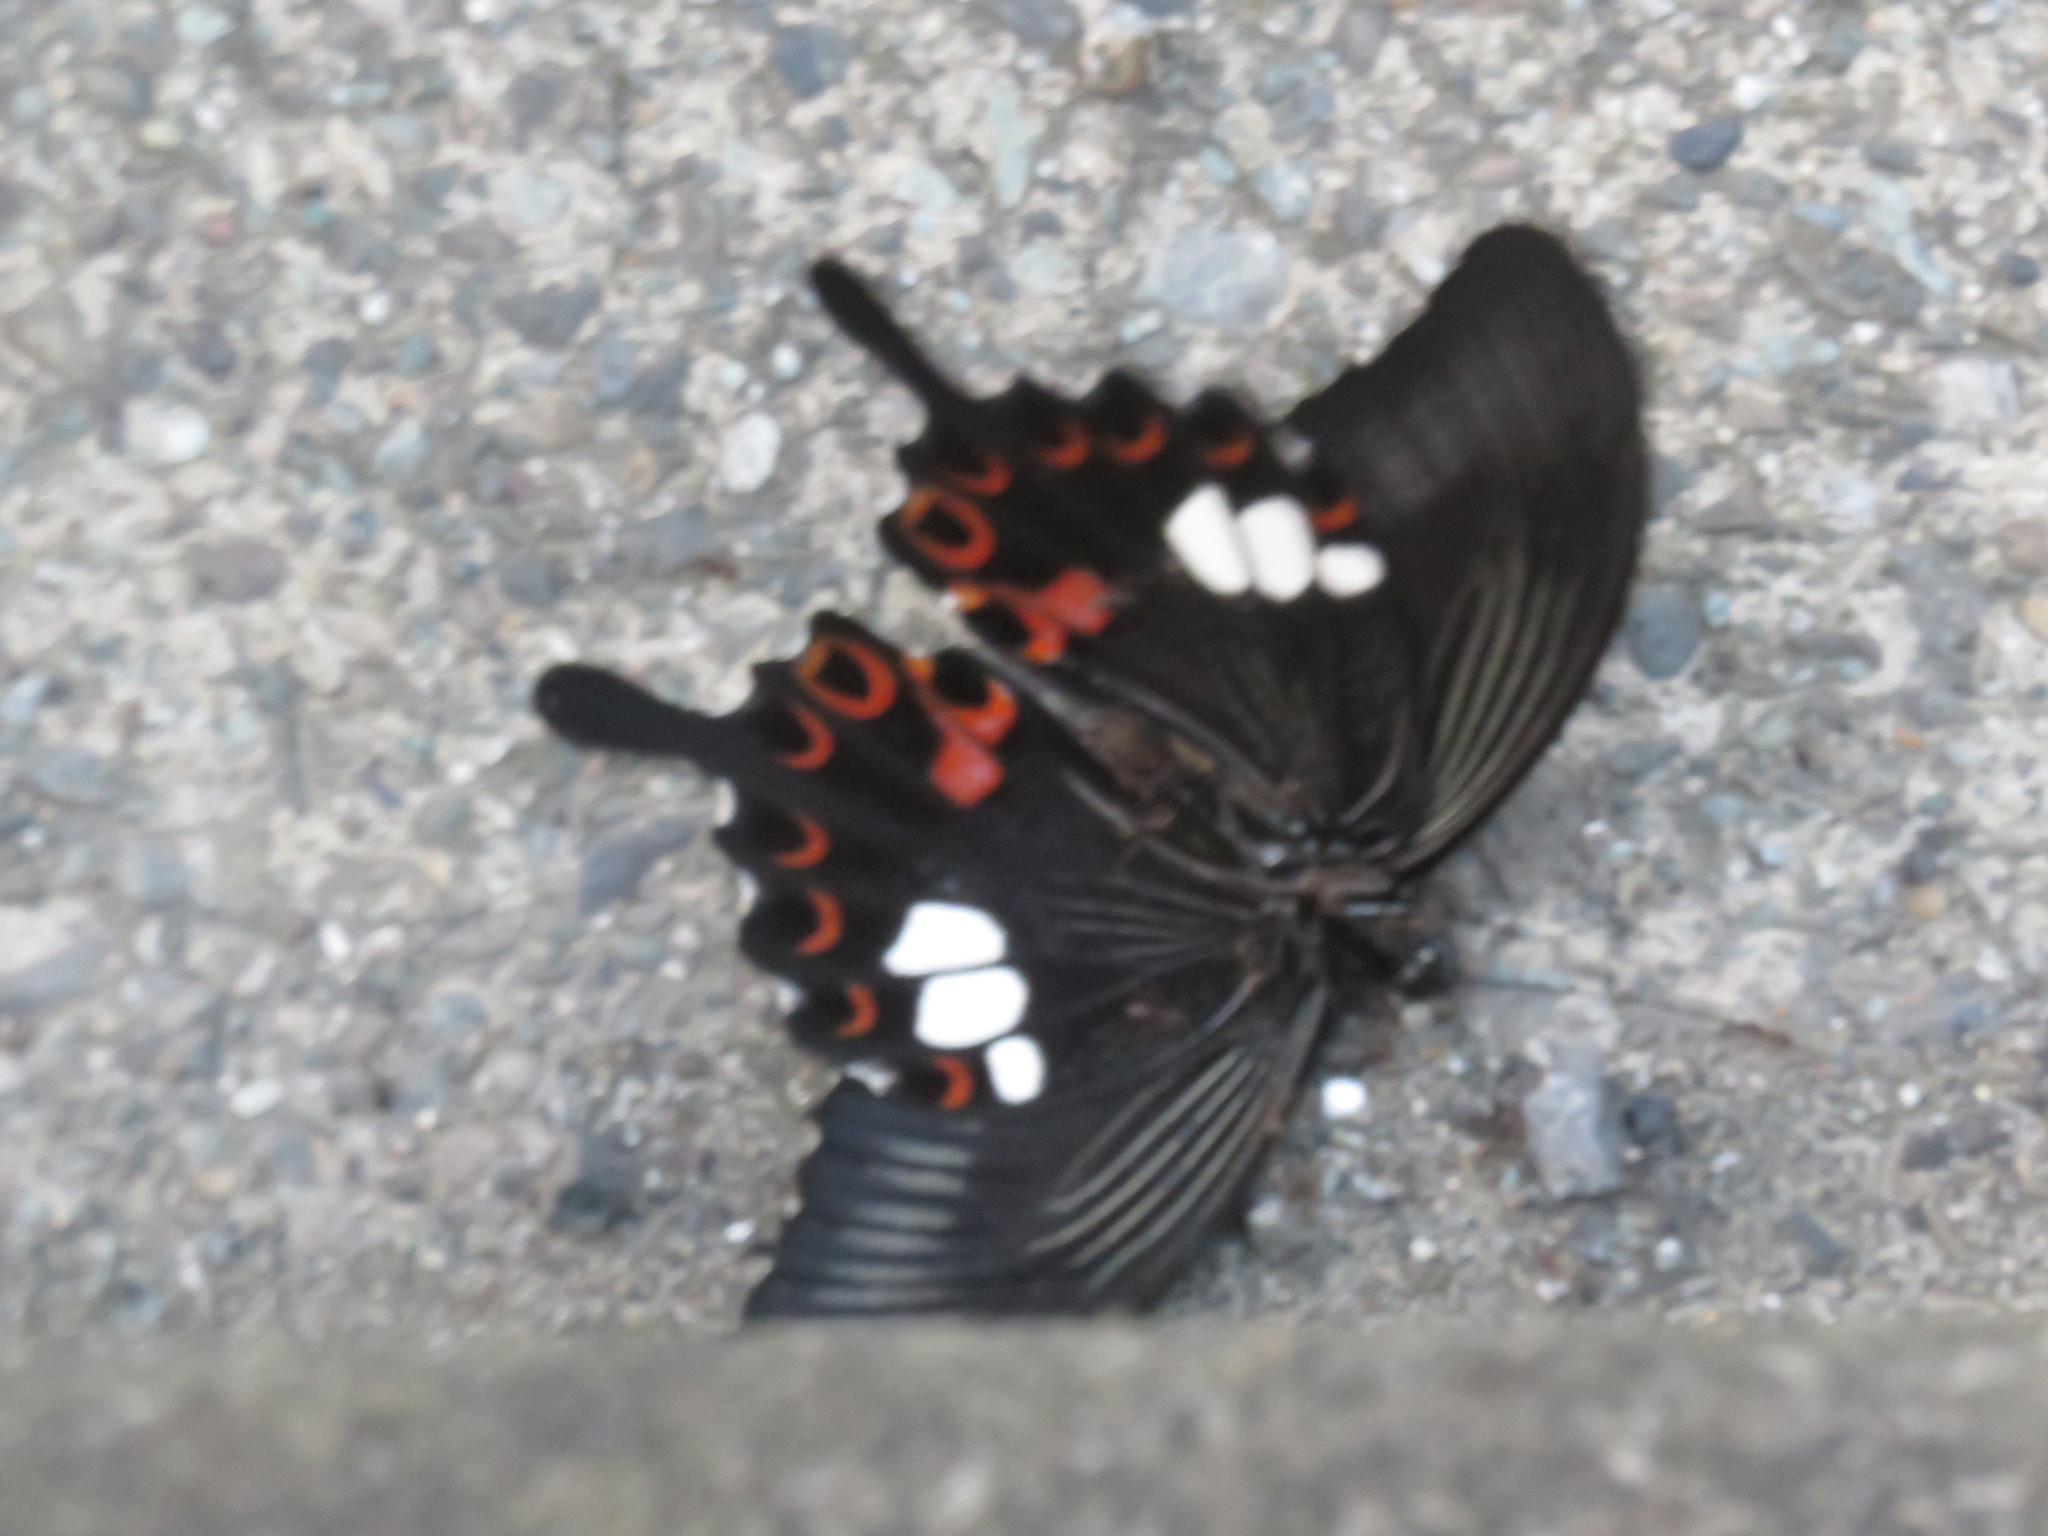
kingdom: Animalia
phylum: Arthropoda
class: Insecta
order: Lepidoptera
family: Papilionidae
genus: Papilio
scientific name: Papilio helenus
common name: Red helen
